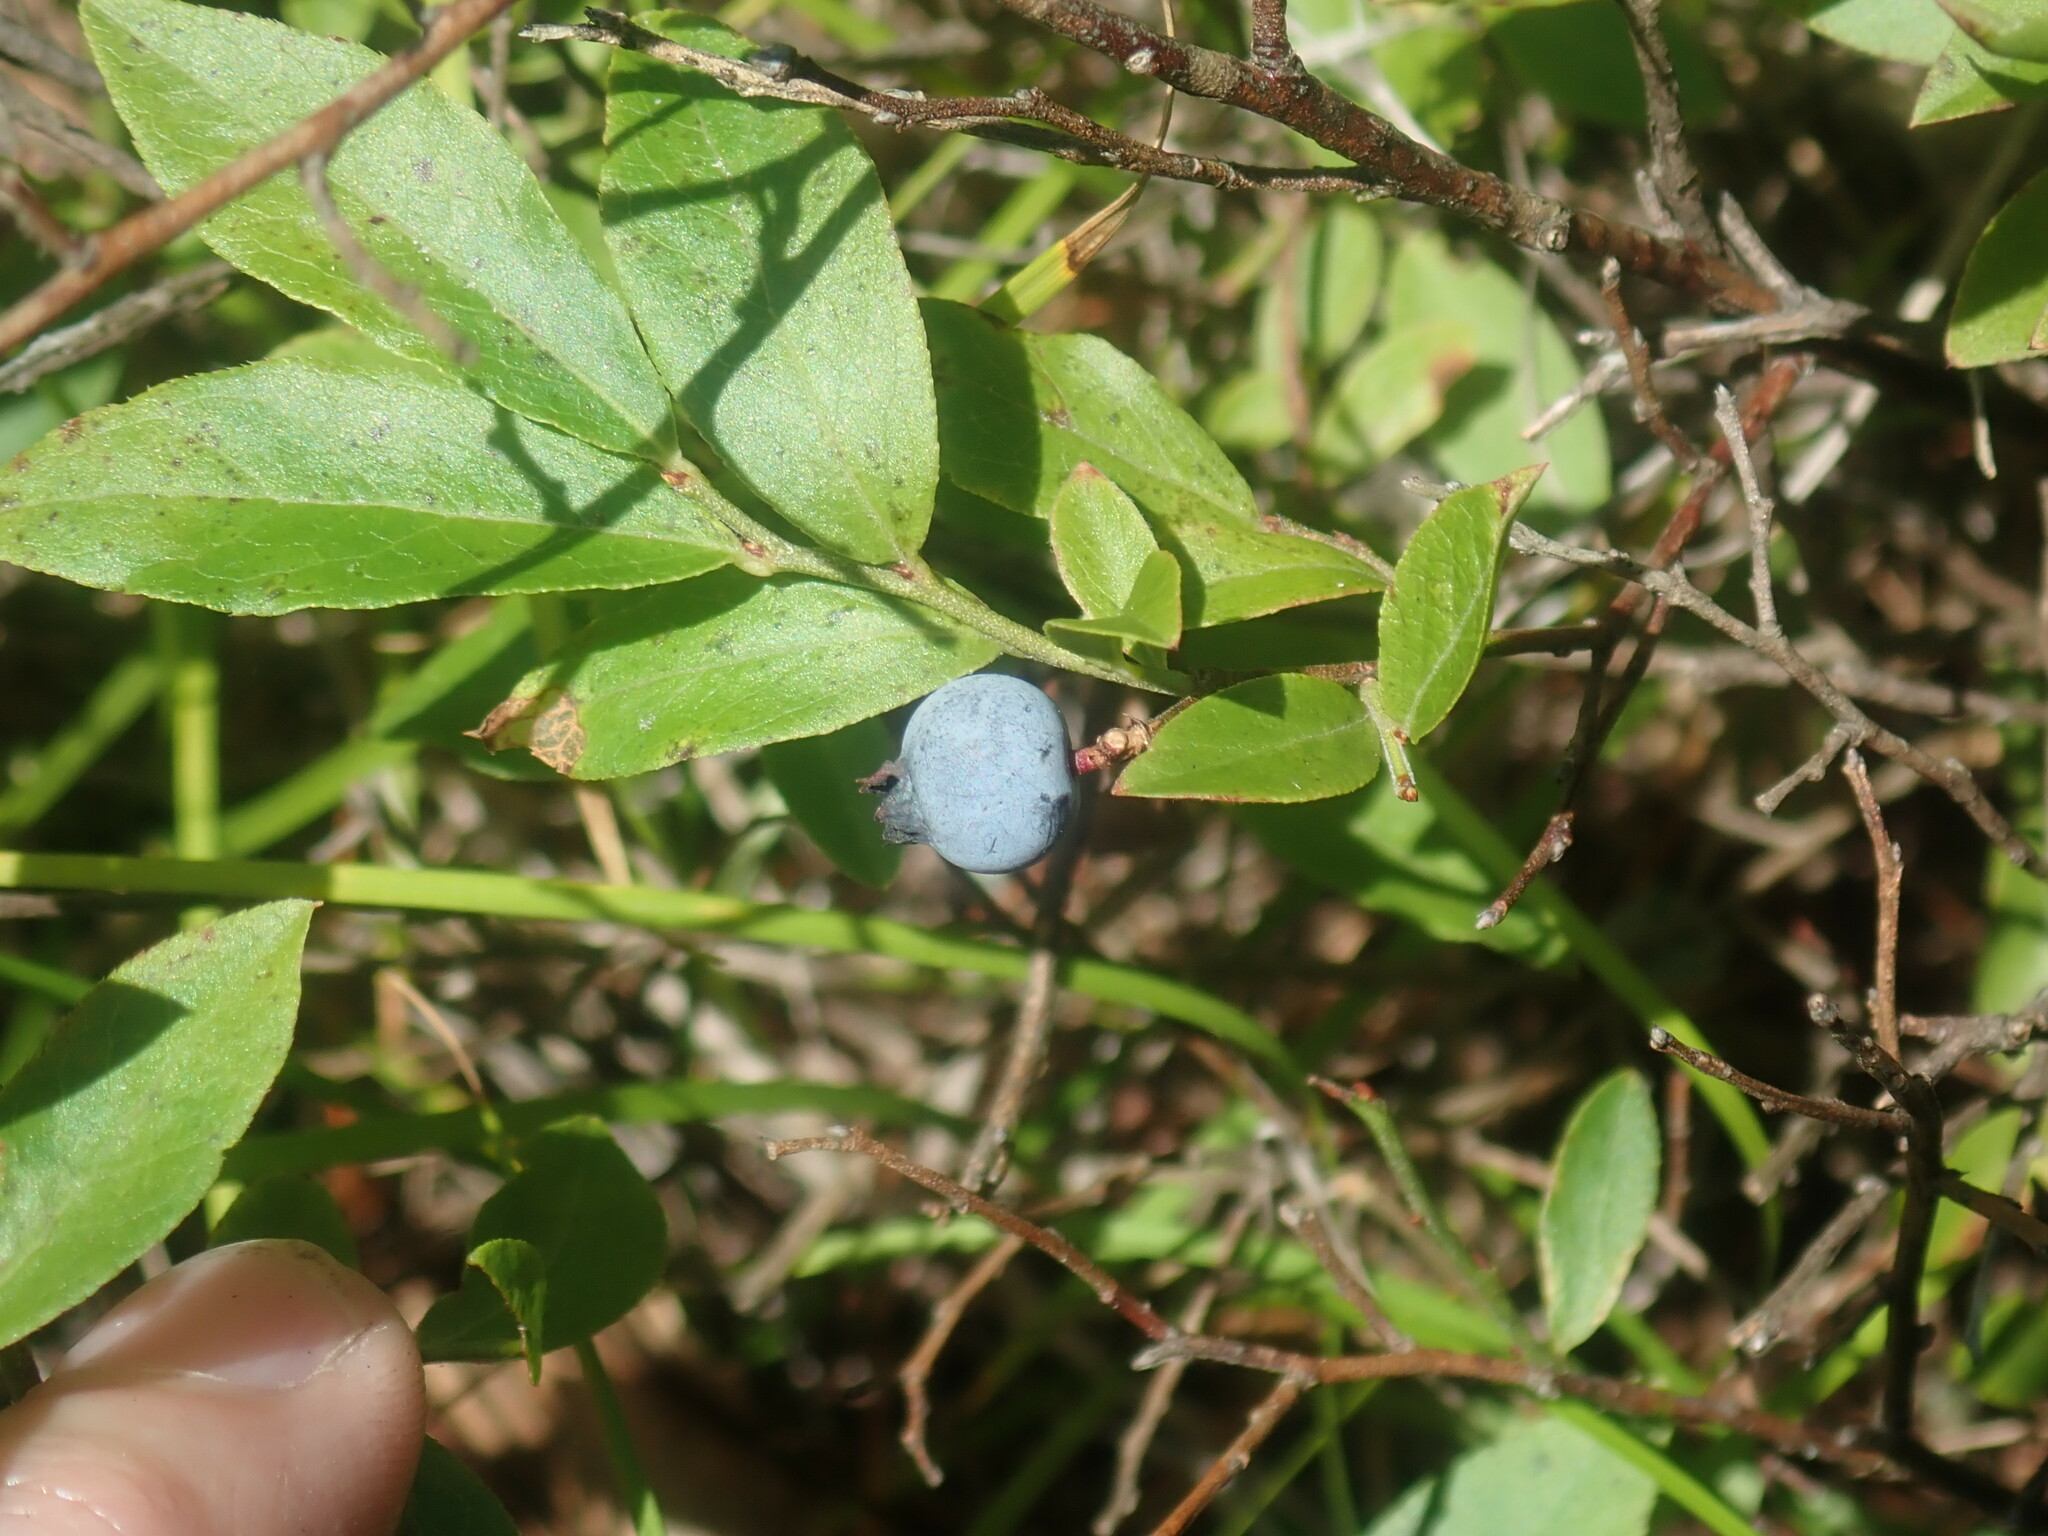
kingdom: Plantae
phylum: Tracheophyta
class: Magnoliopsida
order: Ericales
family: Ericaceae
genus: Vaccinium
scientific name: Vaccinium angustifolium
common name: Early lowbush blueberry
